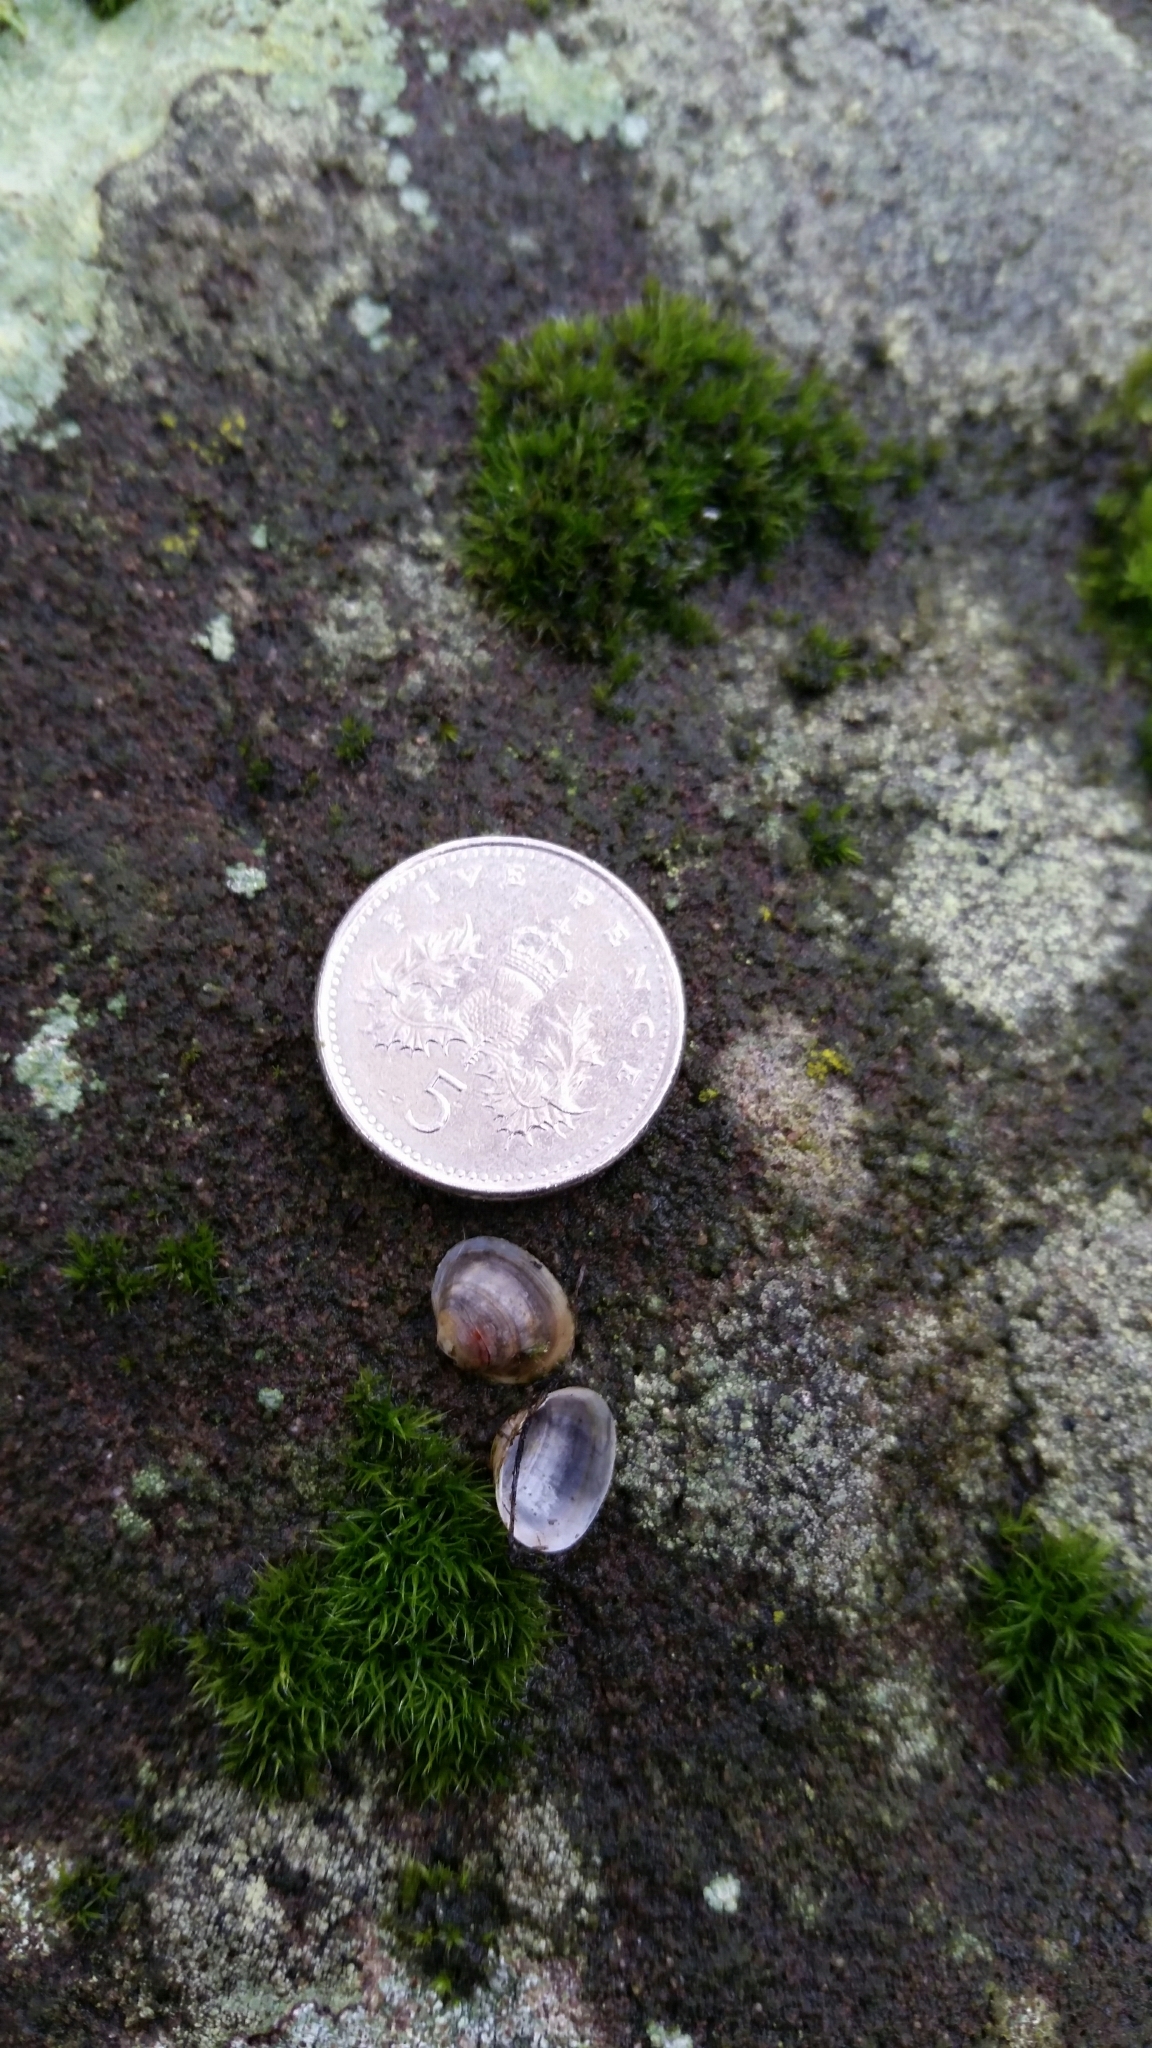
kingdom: Animalia
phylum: Mollusca
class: Bivalvia
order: Sphaeriida
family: Sphaeriidae
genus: Sphaerium
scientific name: Sphaerium corneum
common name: Horny orb mussel
